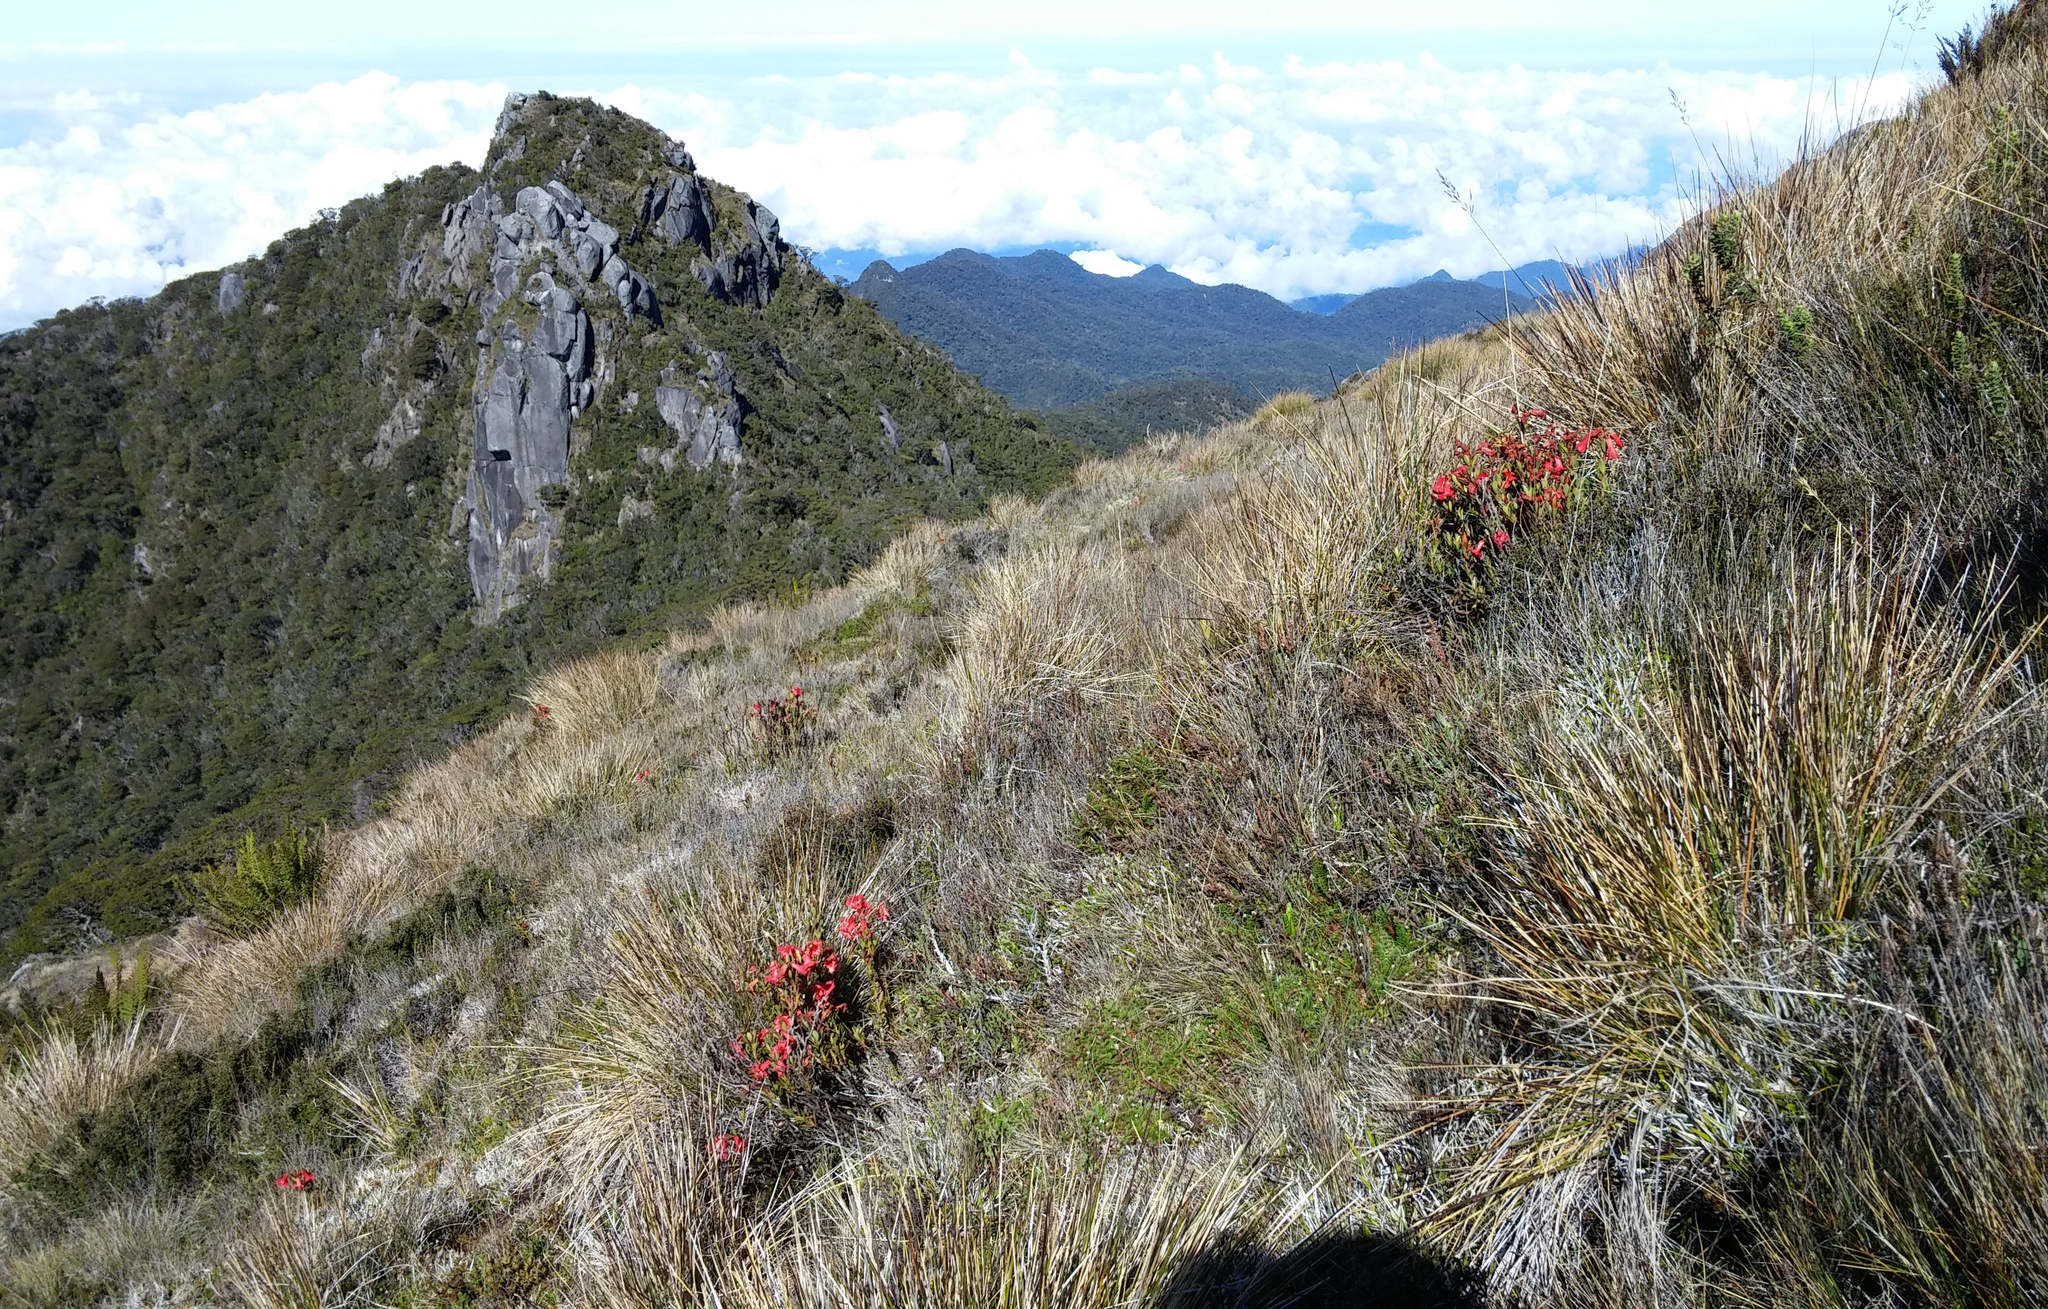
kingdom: Plantae
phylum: Tracheophyta
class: Magnoliopsida
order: Ericales
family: Ericaceae
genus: Rhododendron
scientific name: Rhododendron beyerinckianum
